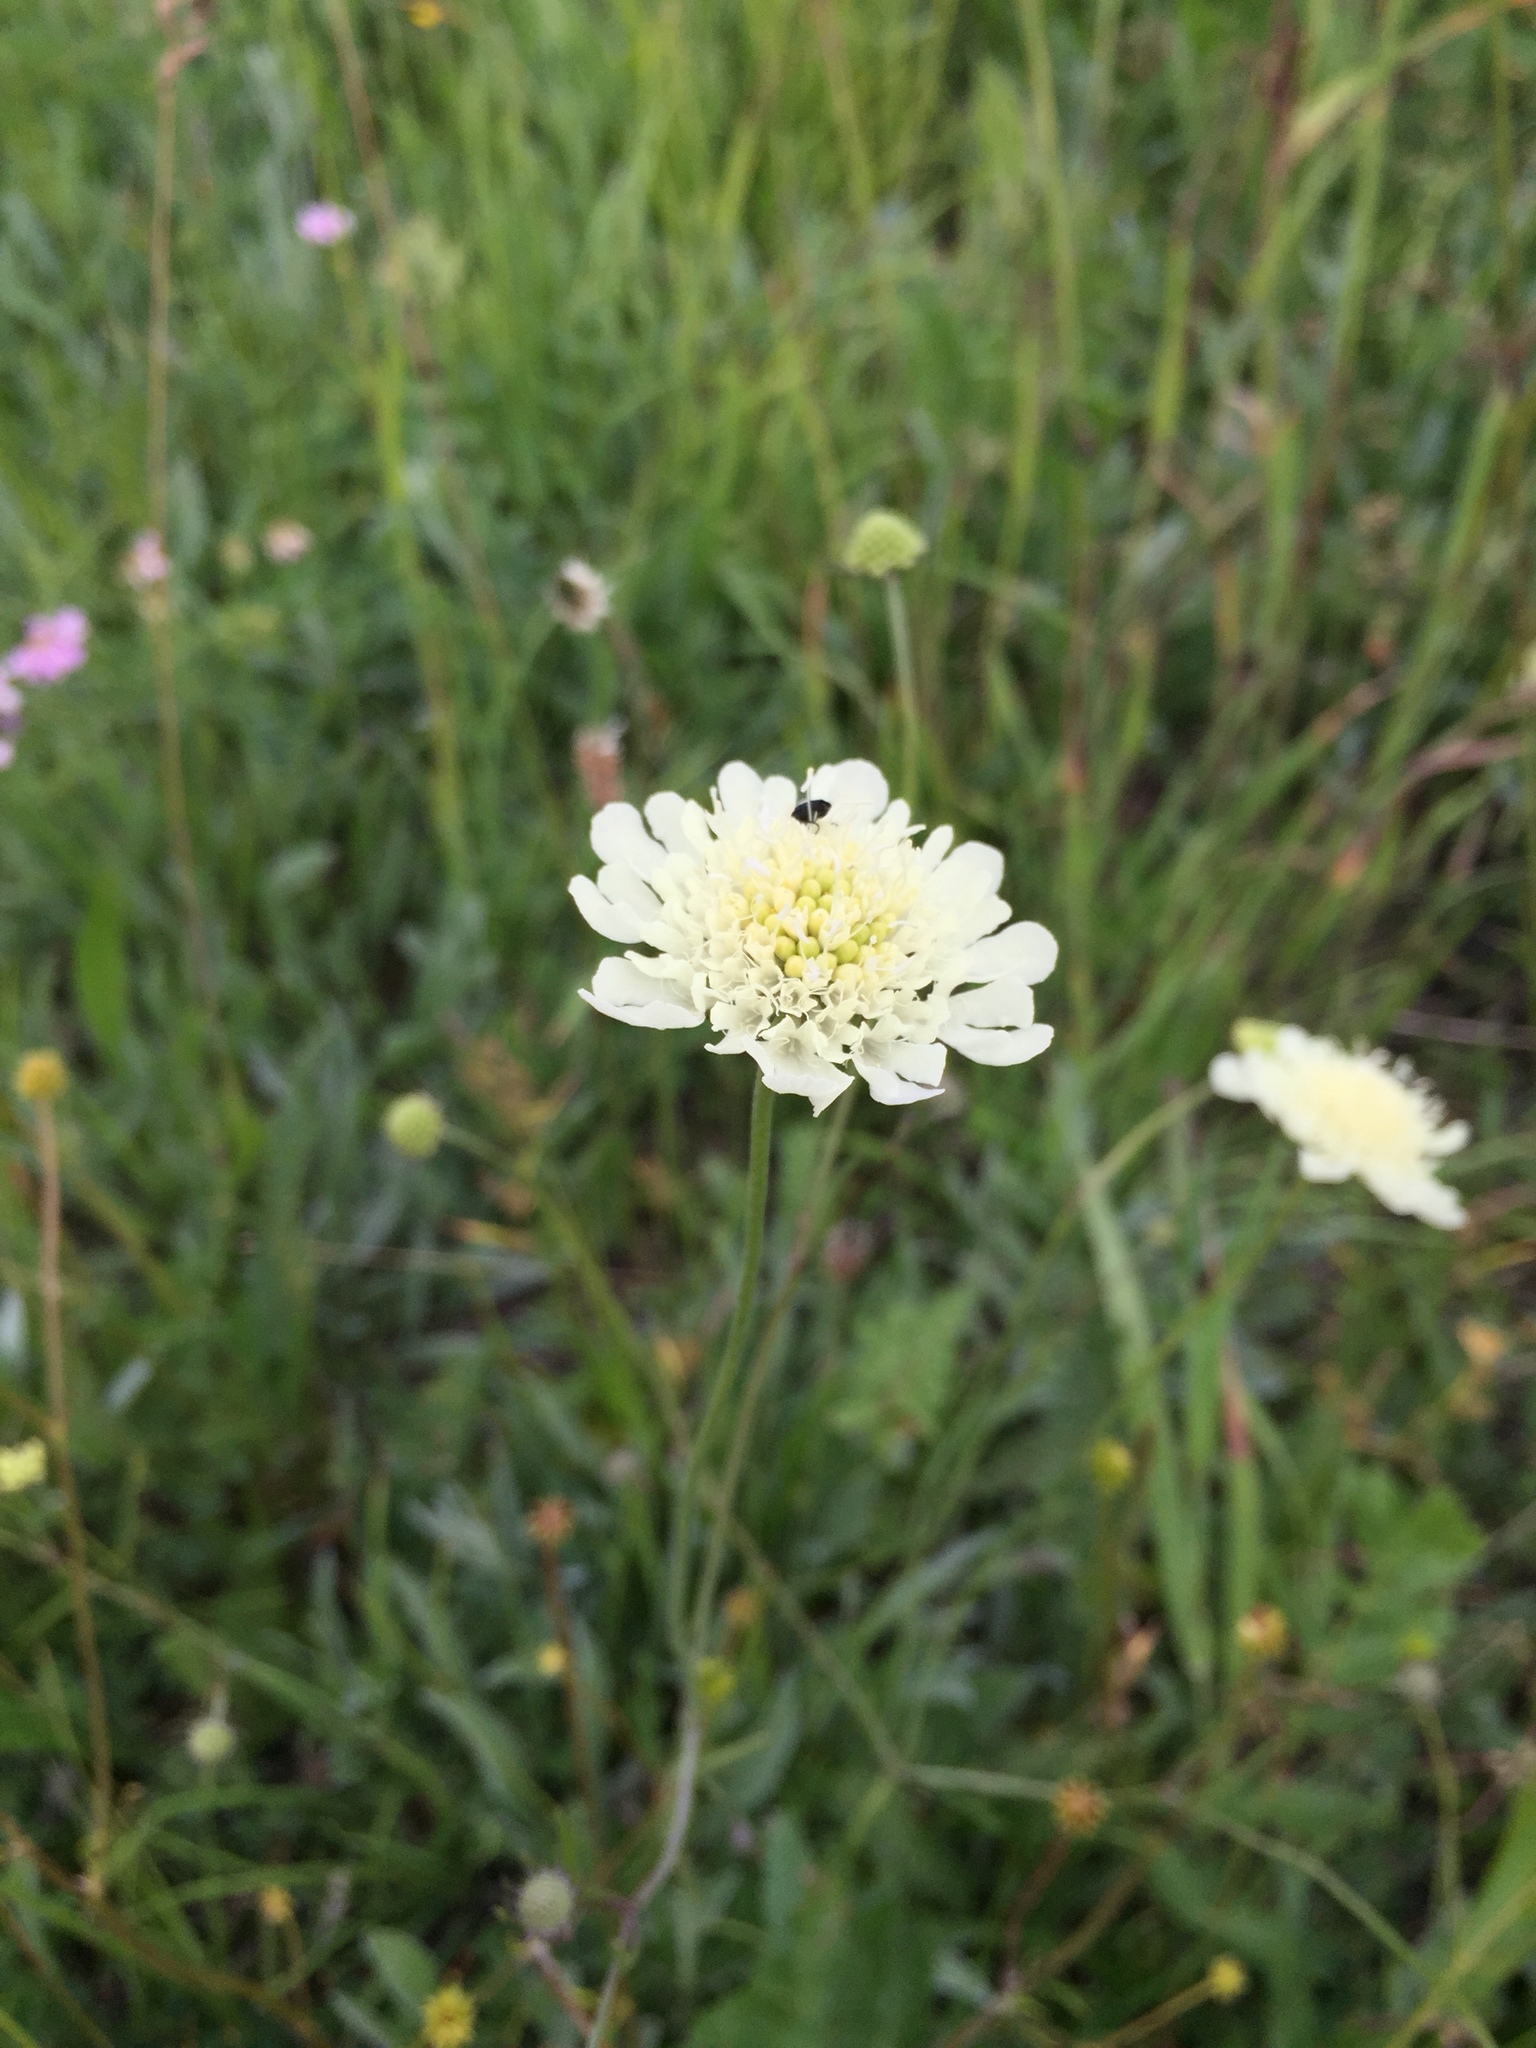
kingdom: Plantae
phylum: Tracheophyta
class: Magnoliopsida
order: Dipsacales
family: Caprifoliaceae
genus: Scabiosa
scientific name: Scabiosa ochroleuca
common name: Cream pincushions
